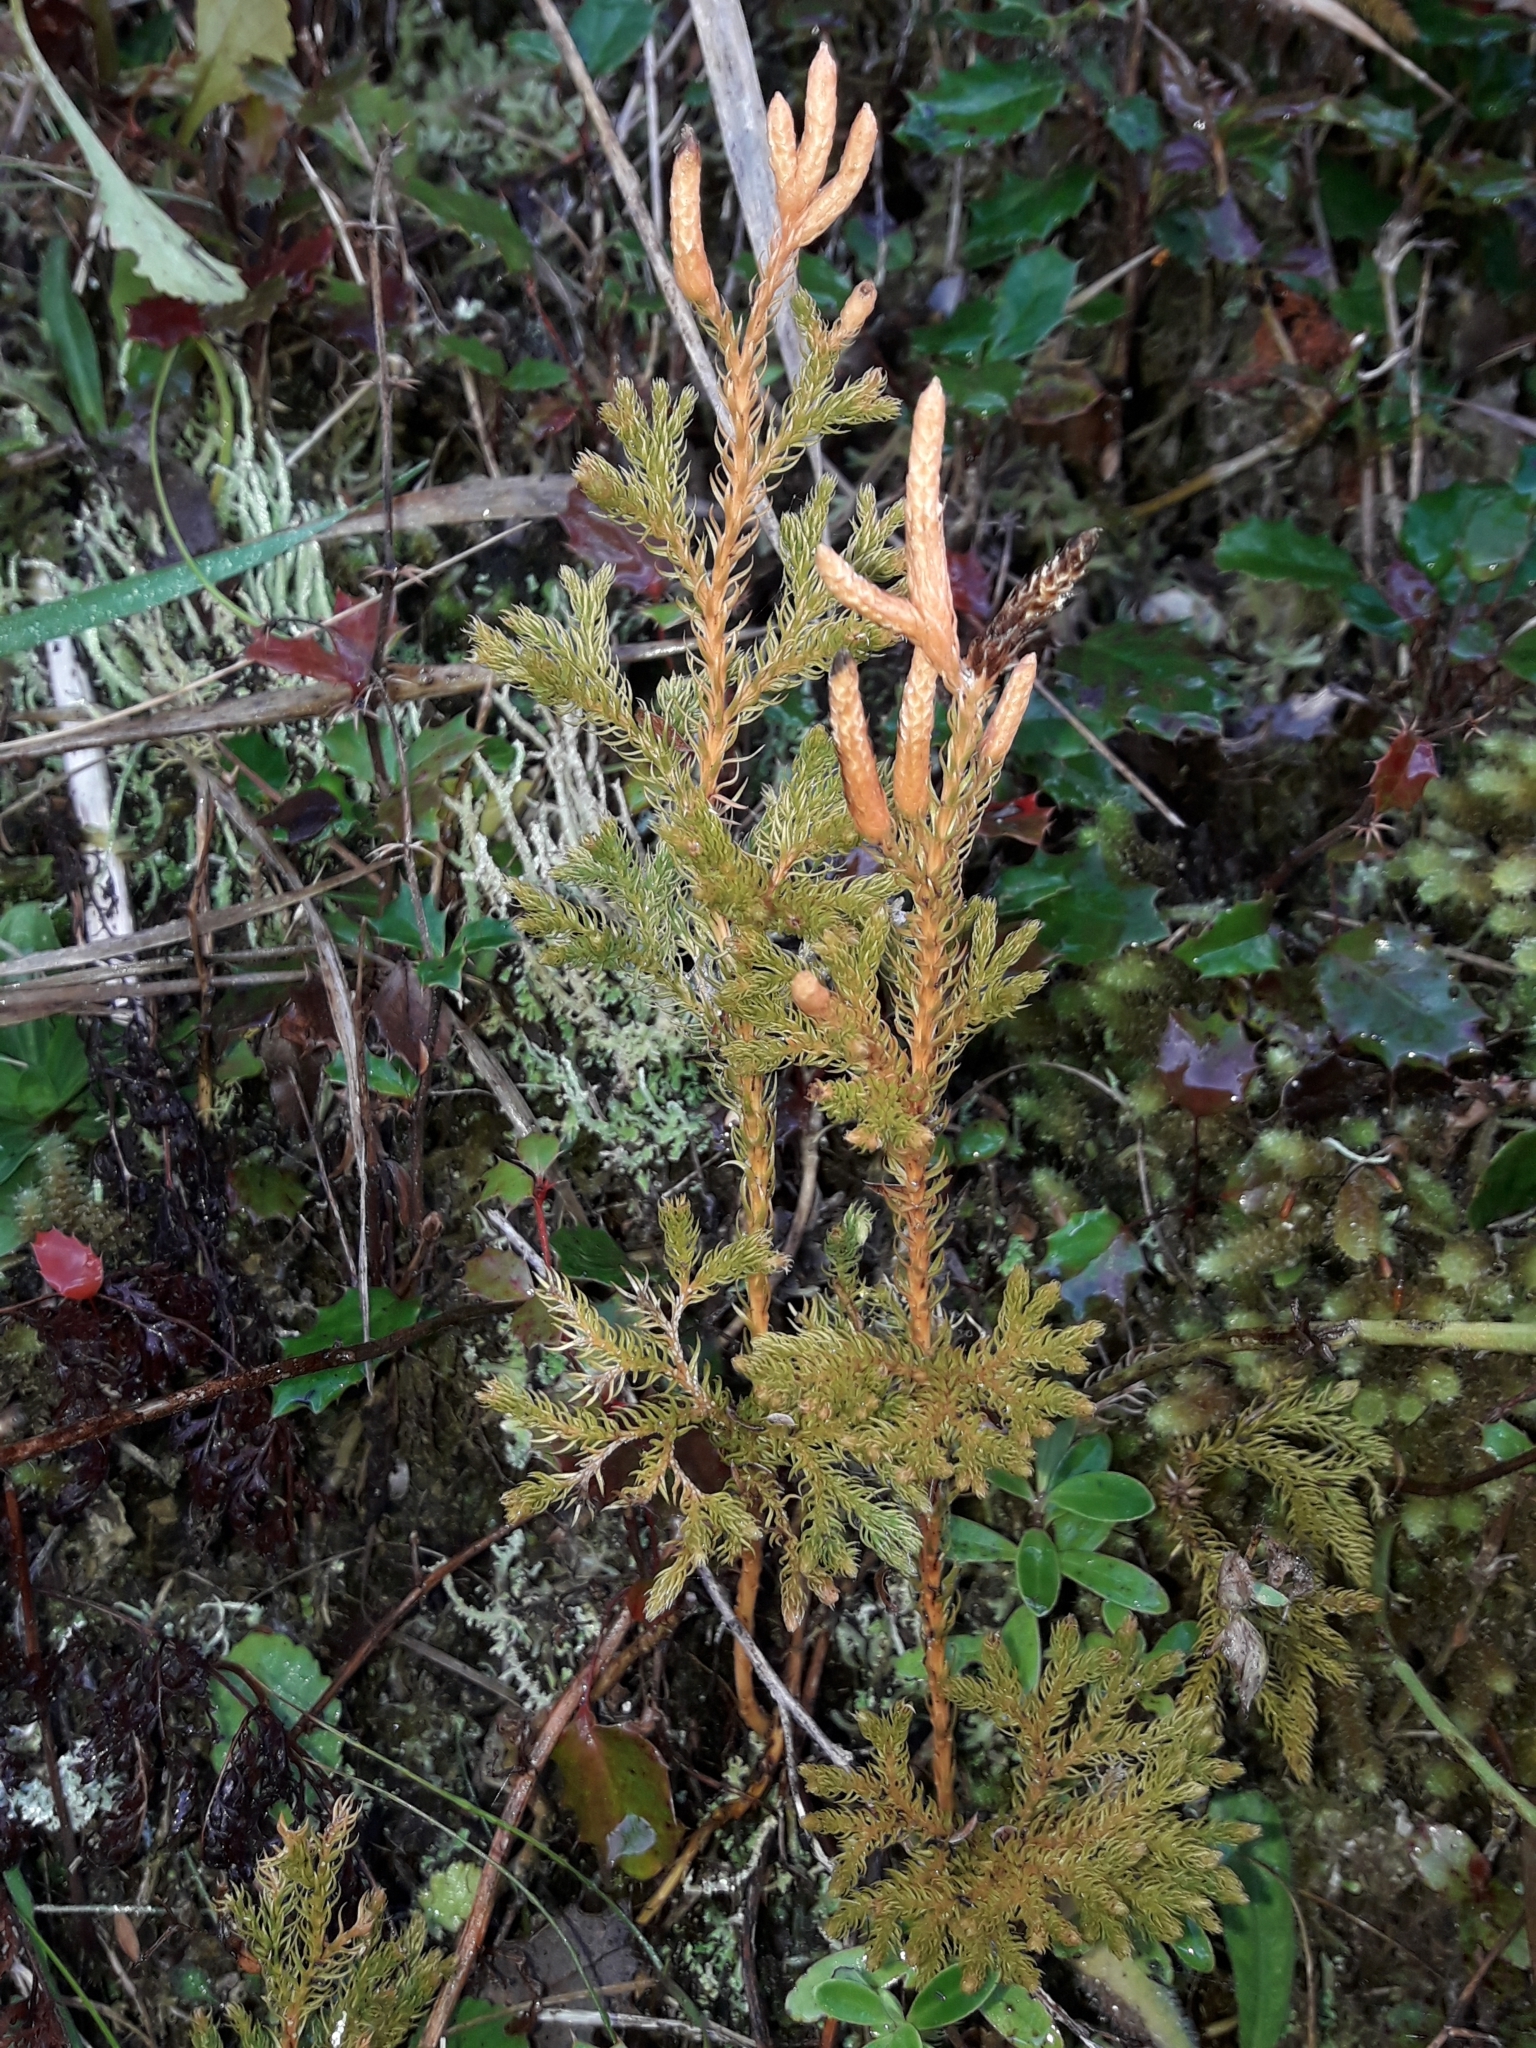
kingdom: Plantae
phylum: Tracheophyta
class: Lycopodiopsida
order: Lycopodiales
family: Lycopodiaceae
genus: Austrolycopodium
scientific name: Austrolycopodium fastigiatum
